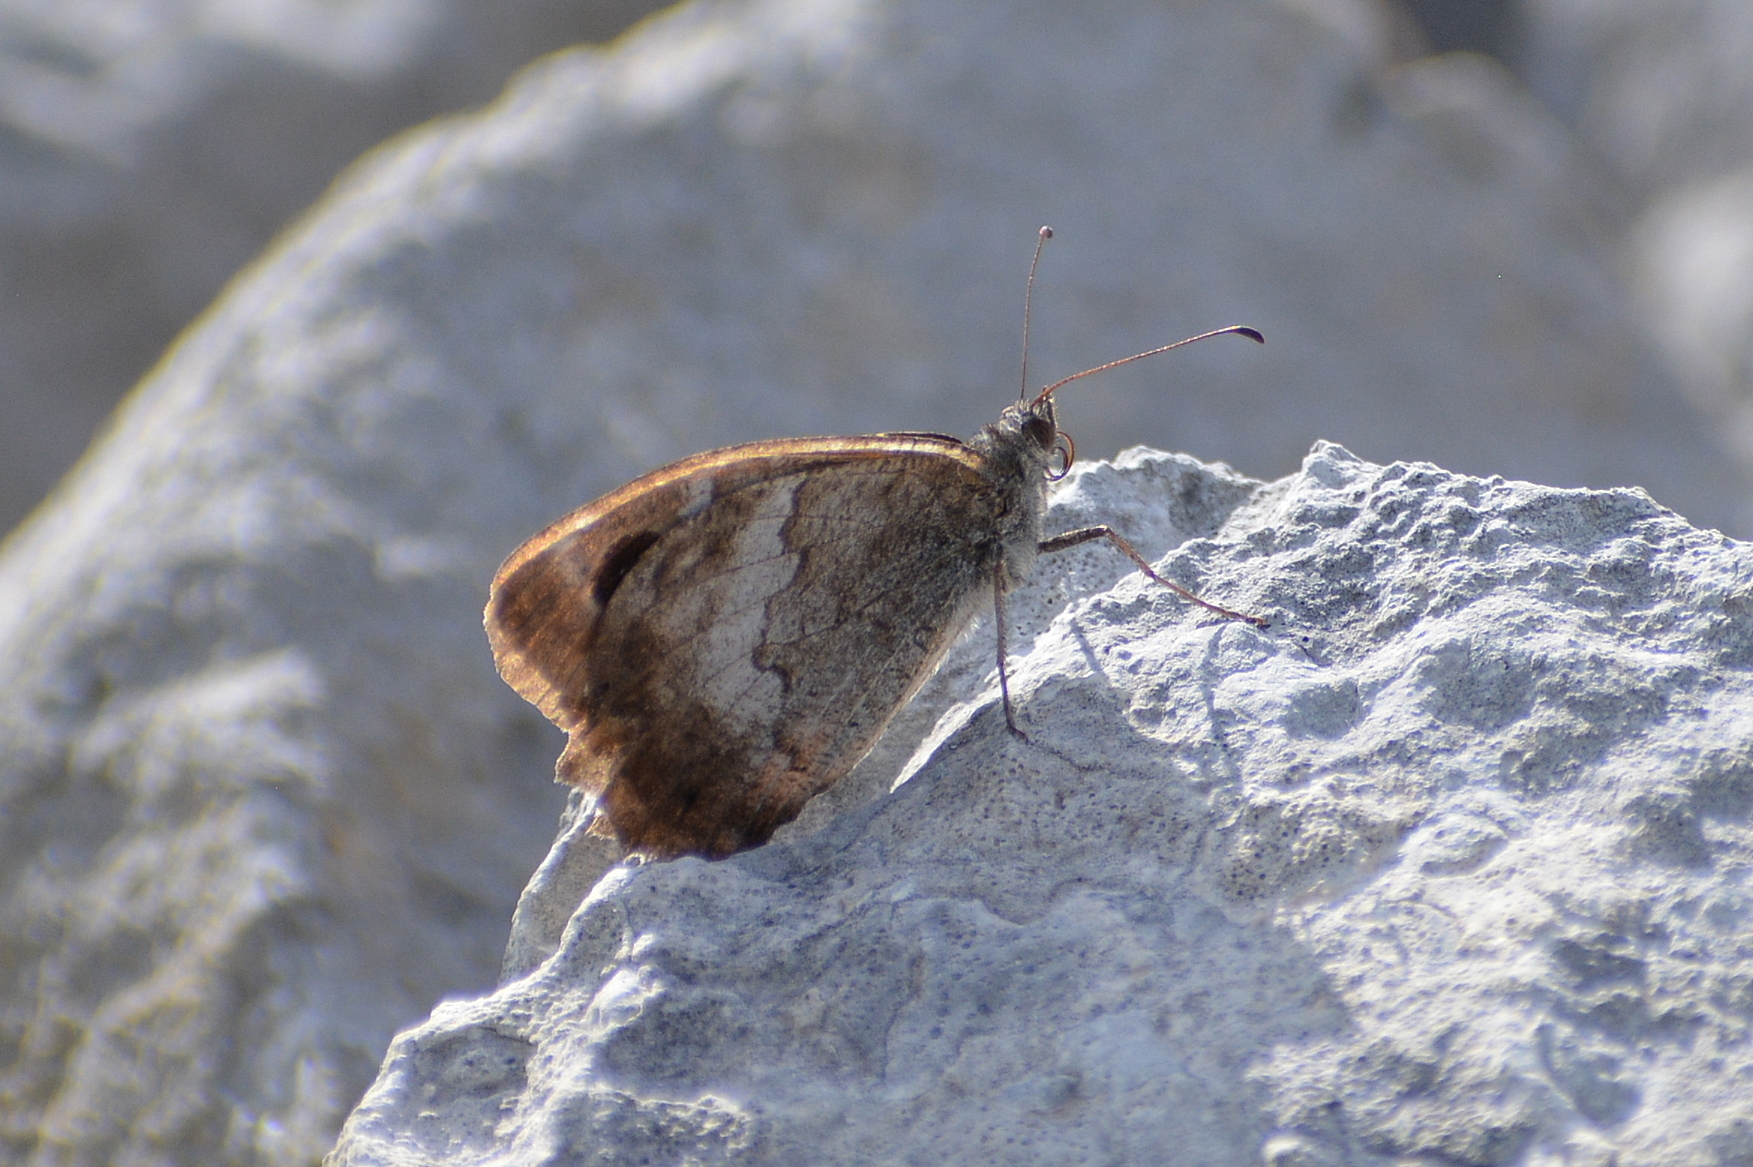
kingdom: Animalia
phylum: Arthropoda
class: Insecta
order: Lepidoptera
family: Nymphalidae
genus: Hipparchia
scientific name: Hipparchia statilinus
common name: Tree grayling
